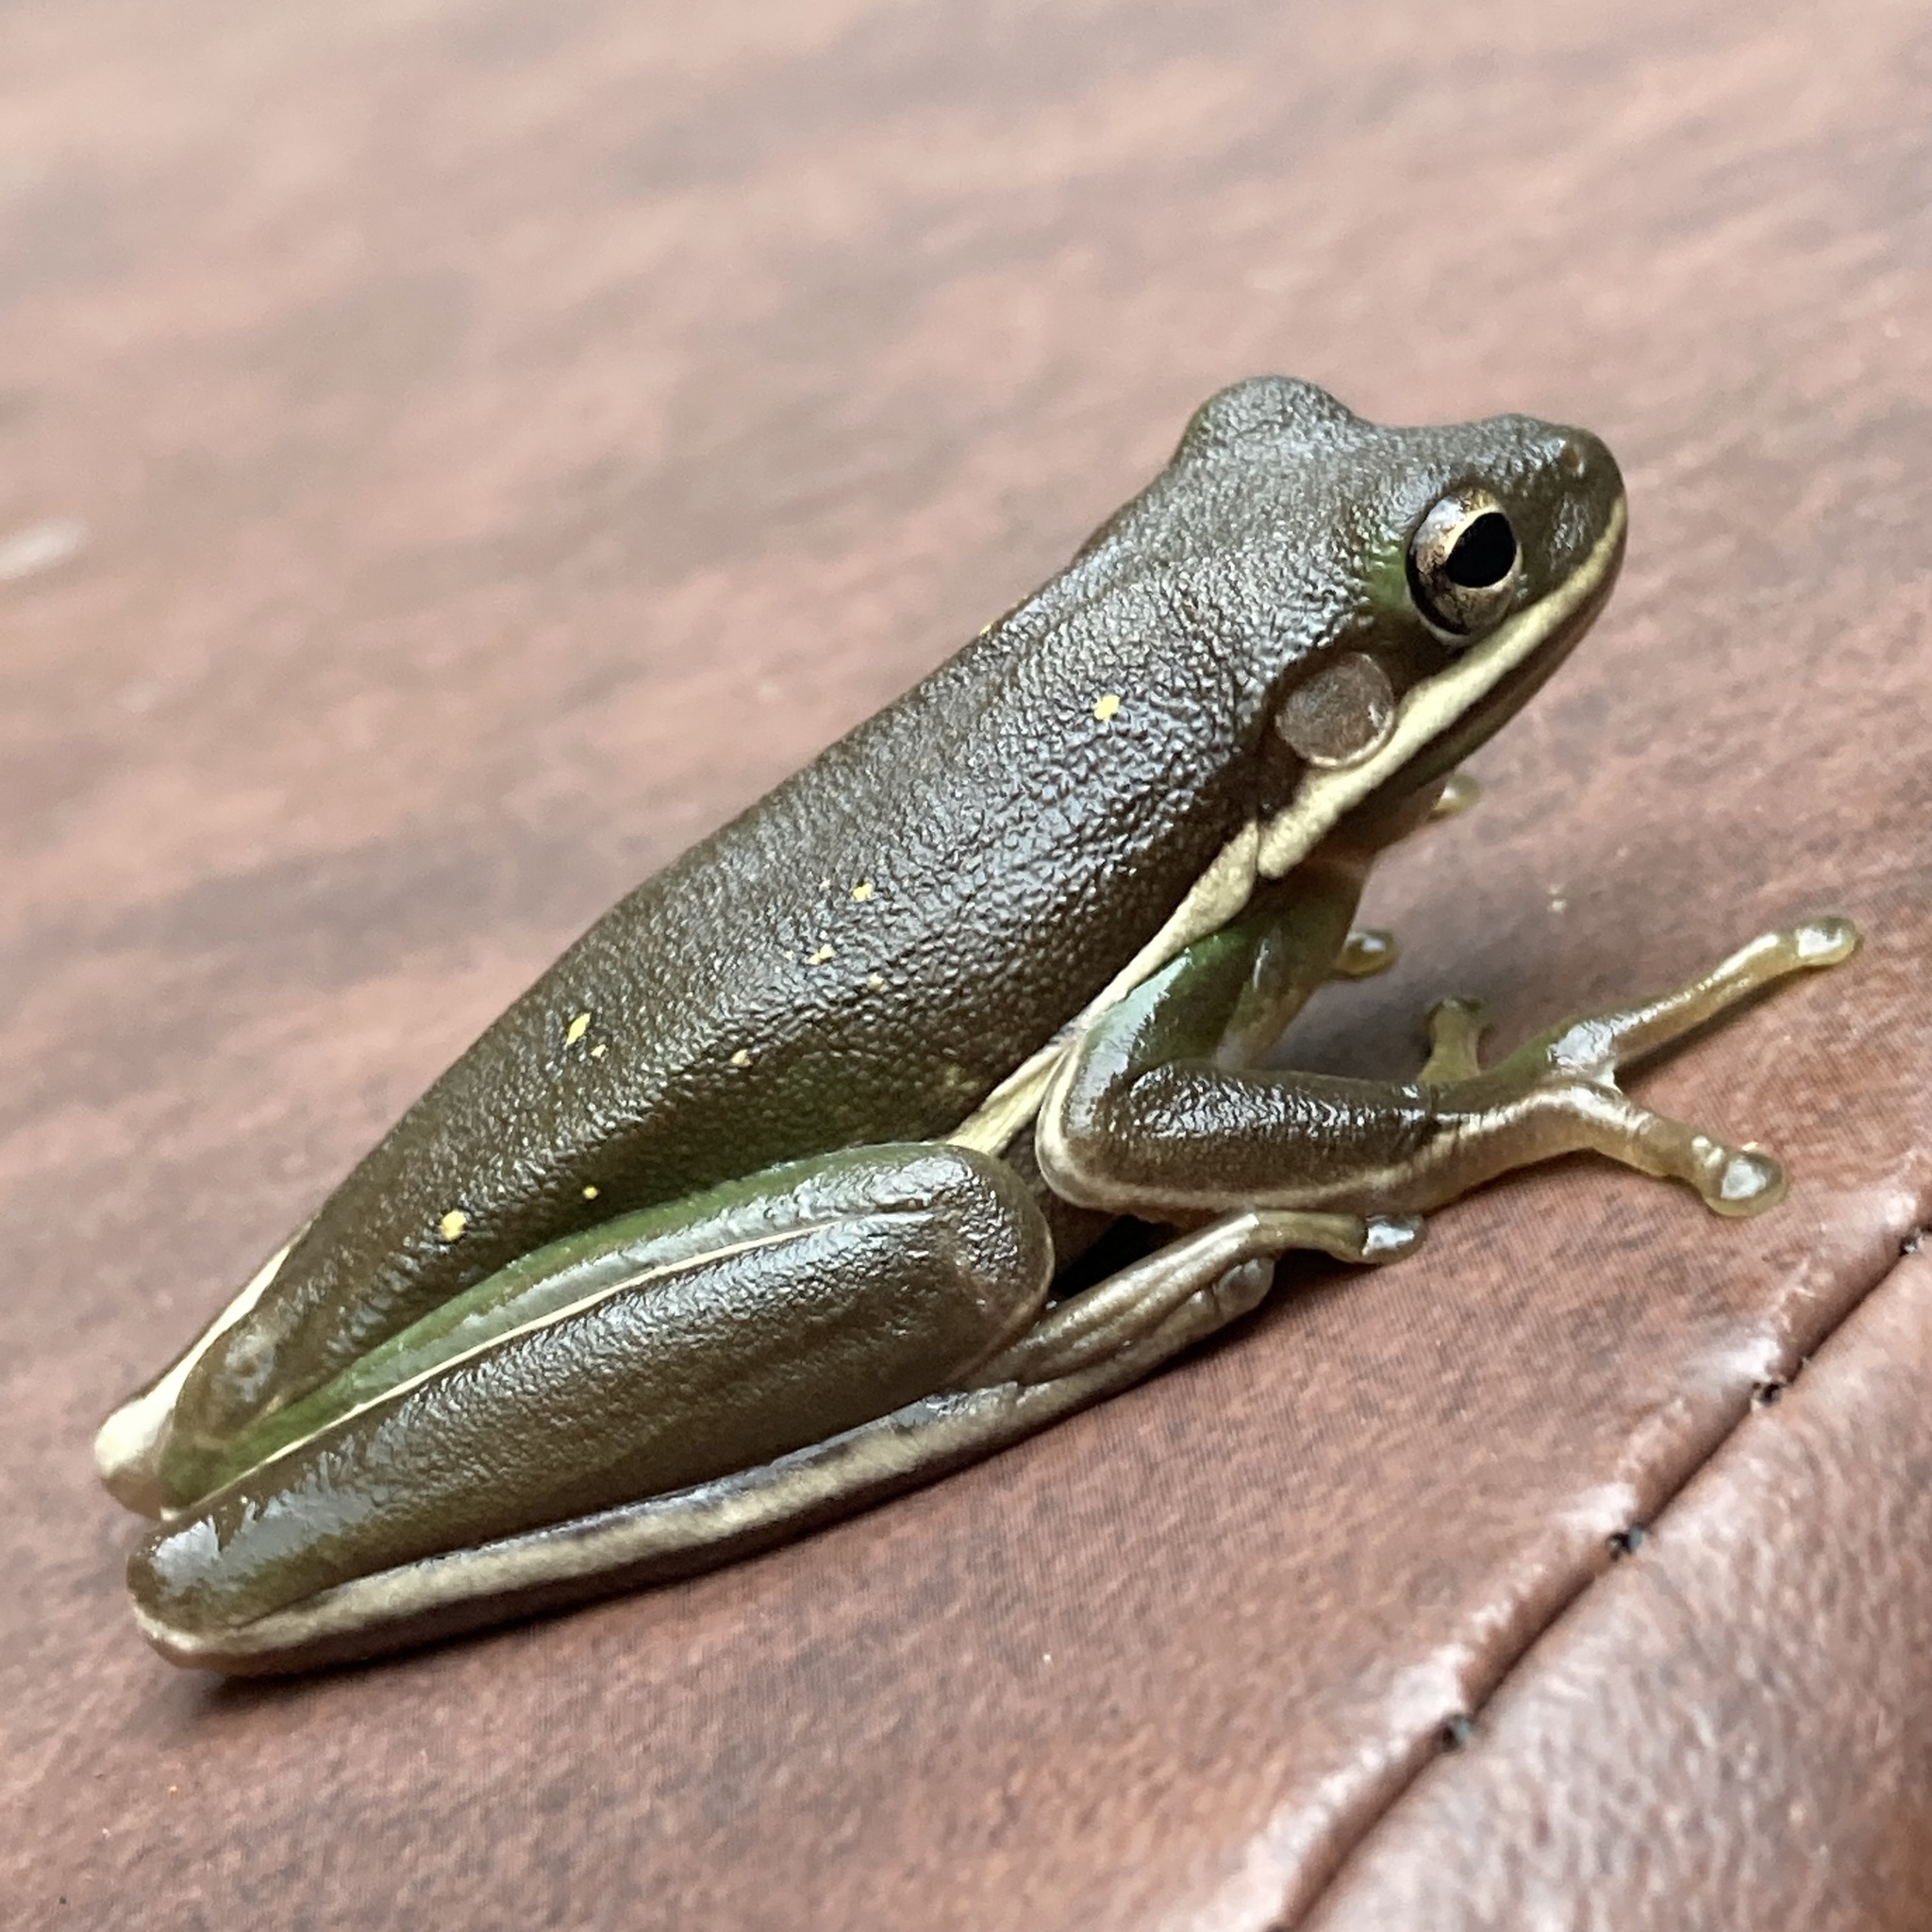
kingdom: Animalia
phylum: Chordata
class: Amphibia
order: Anura
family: Hylidae
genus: Dryophytes
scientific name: Dryophytes cinereus
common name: Green treefrog
